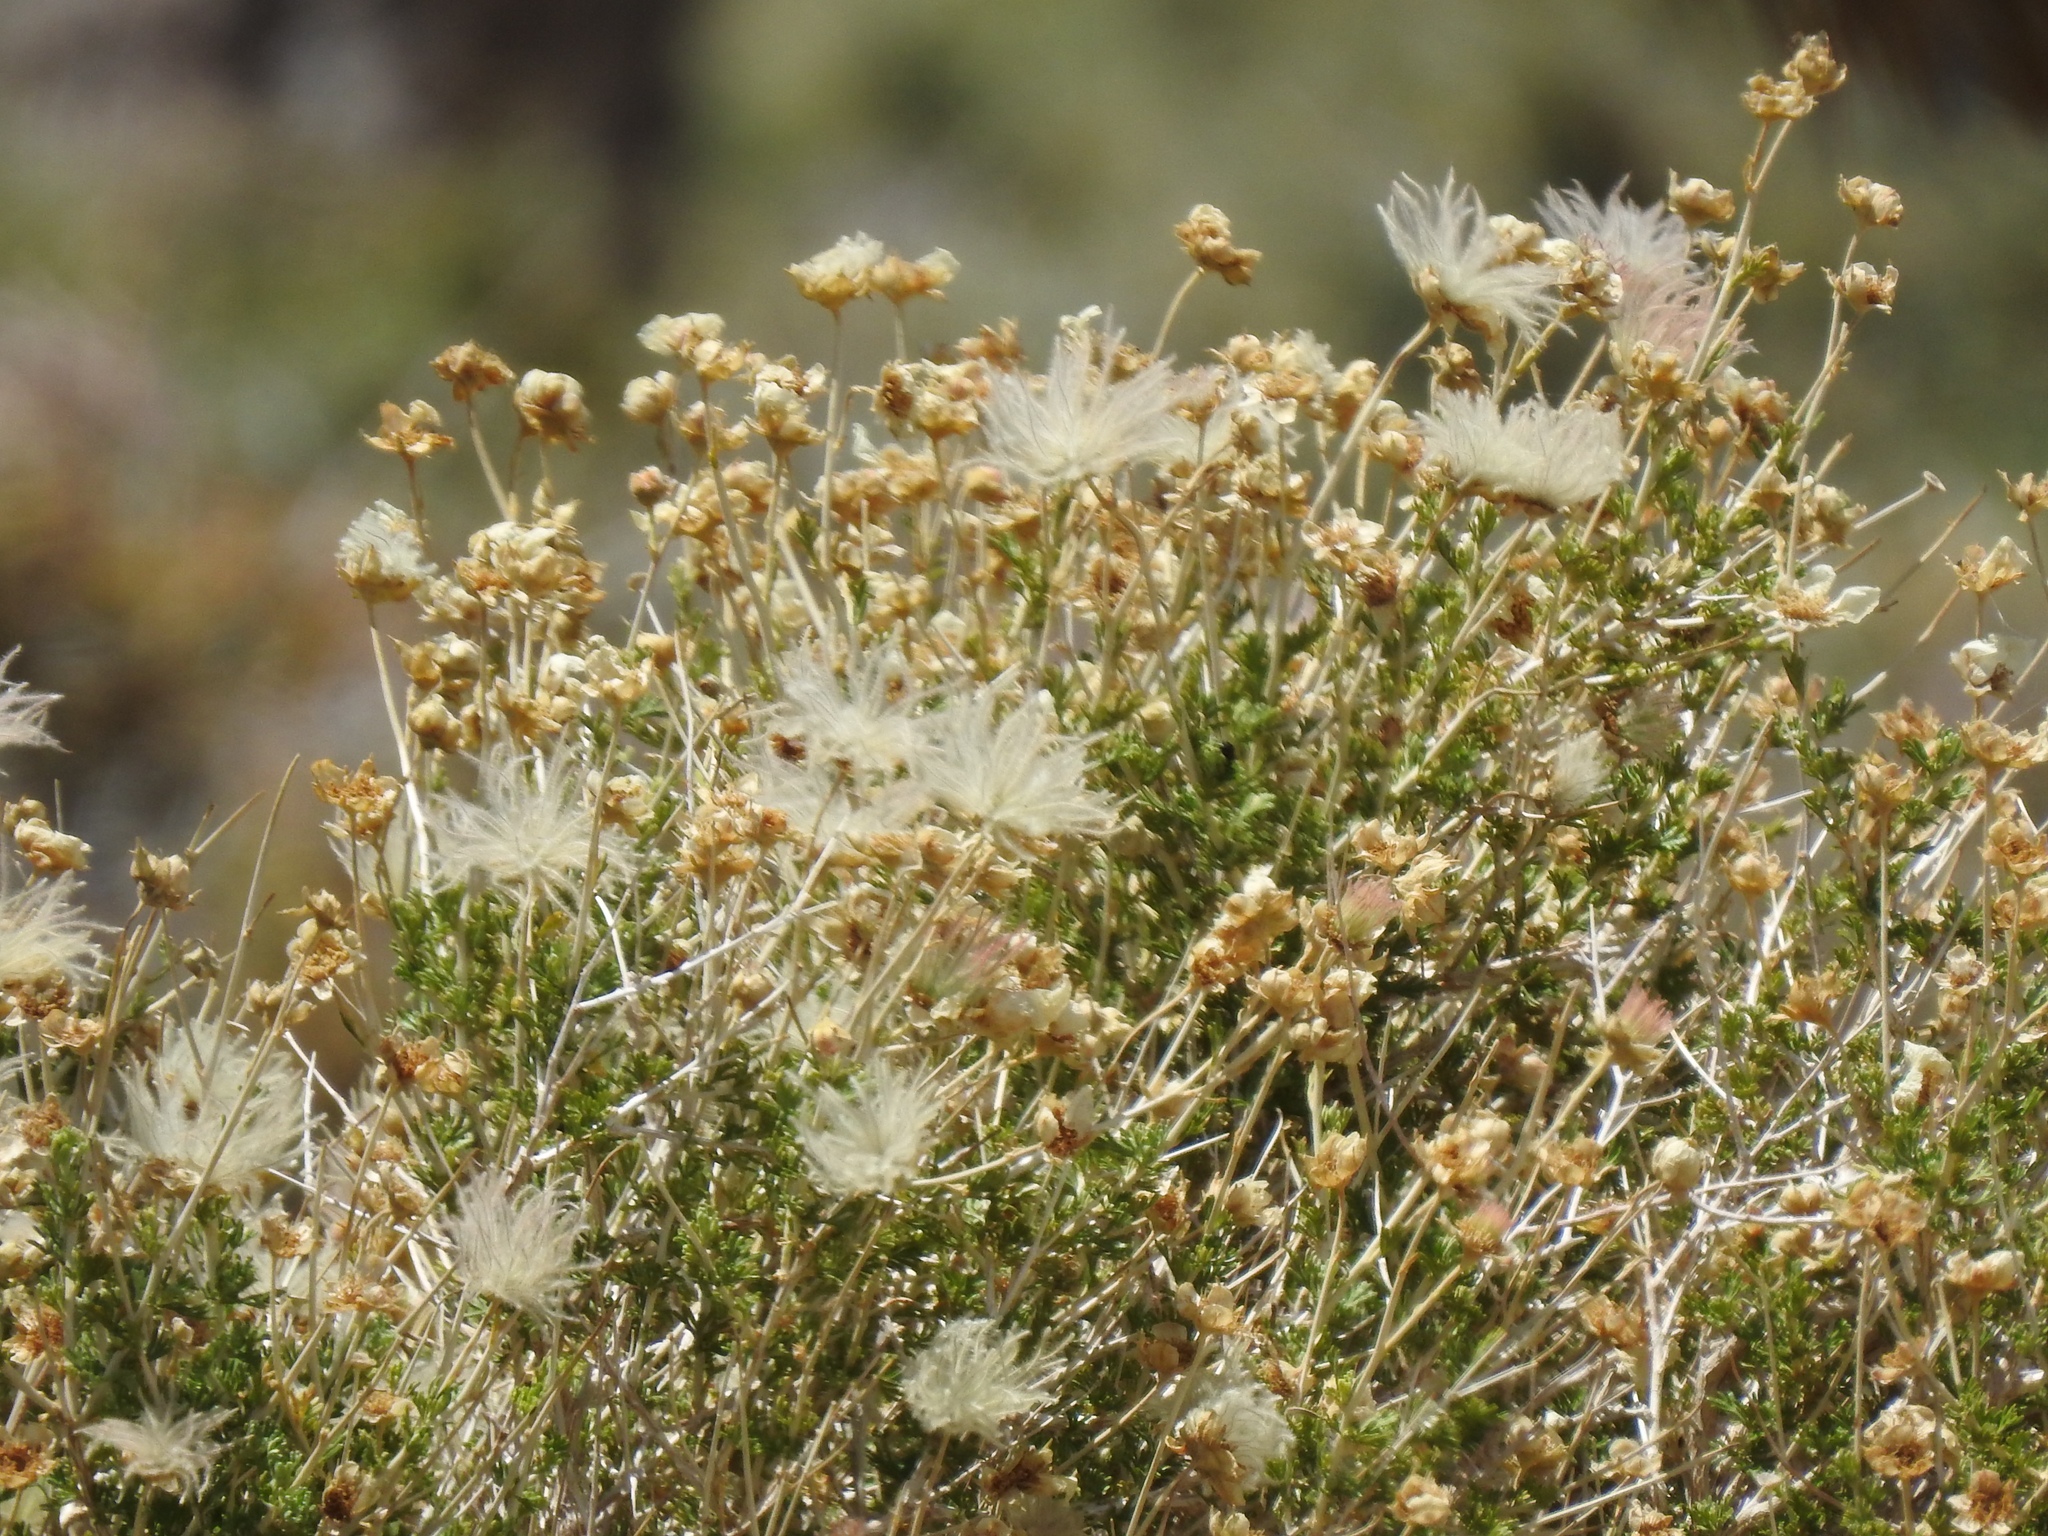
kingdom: Plantae
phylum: Tracheophyta
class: Magnoliopsida
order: Rosales
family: Rosaceae
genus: Fallugia
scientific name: Fallugia paradoxa
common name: Apache-plume
